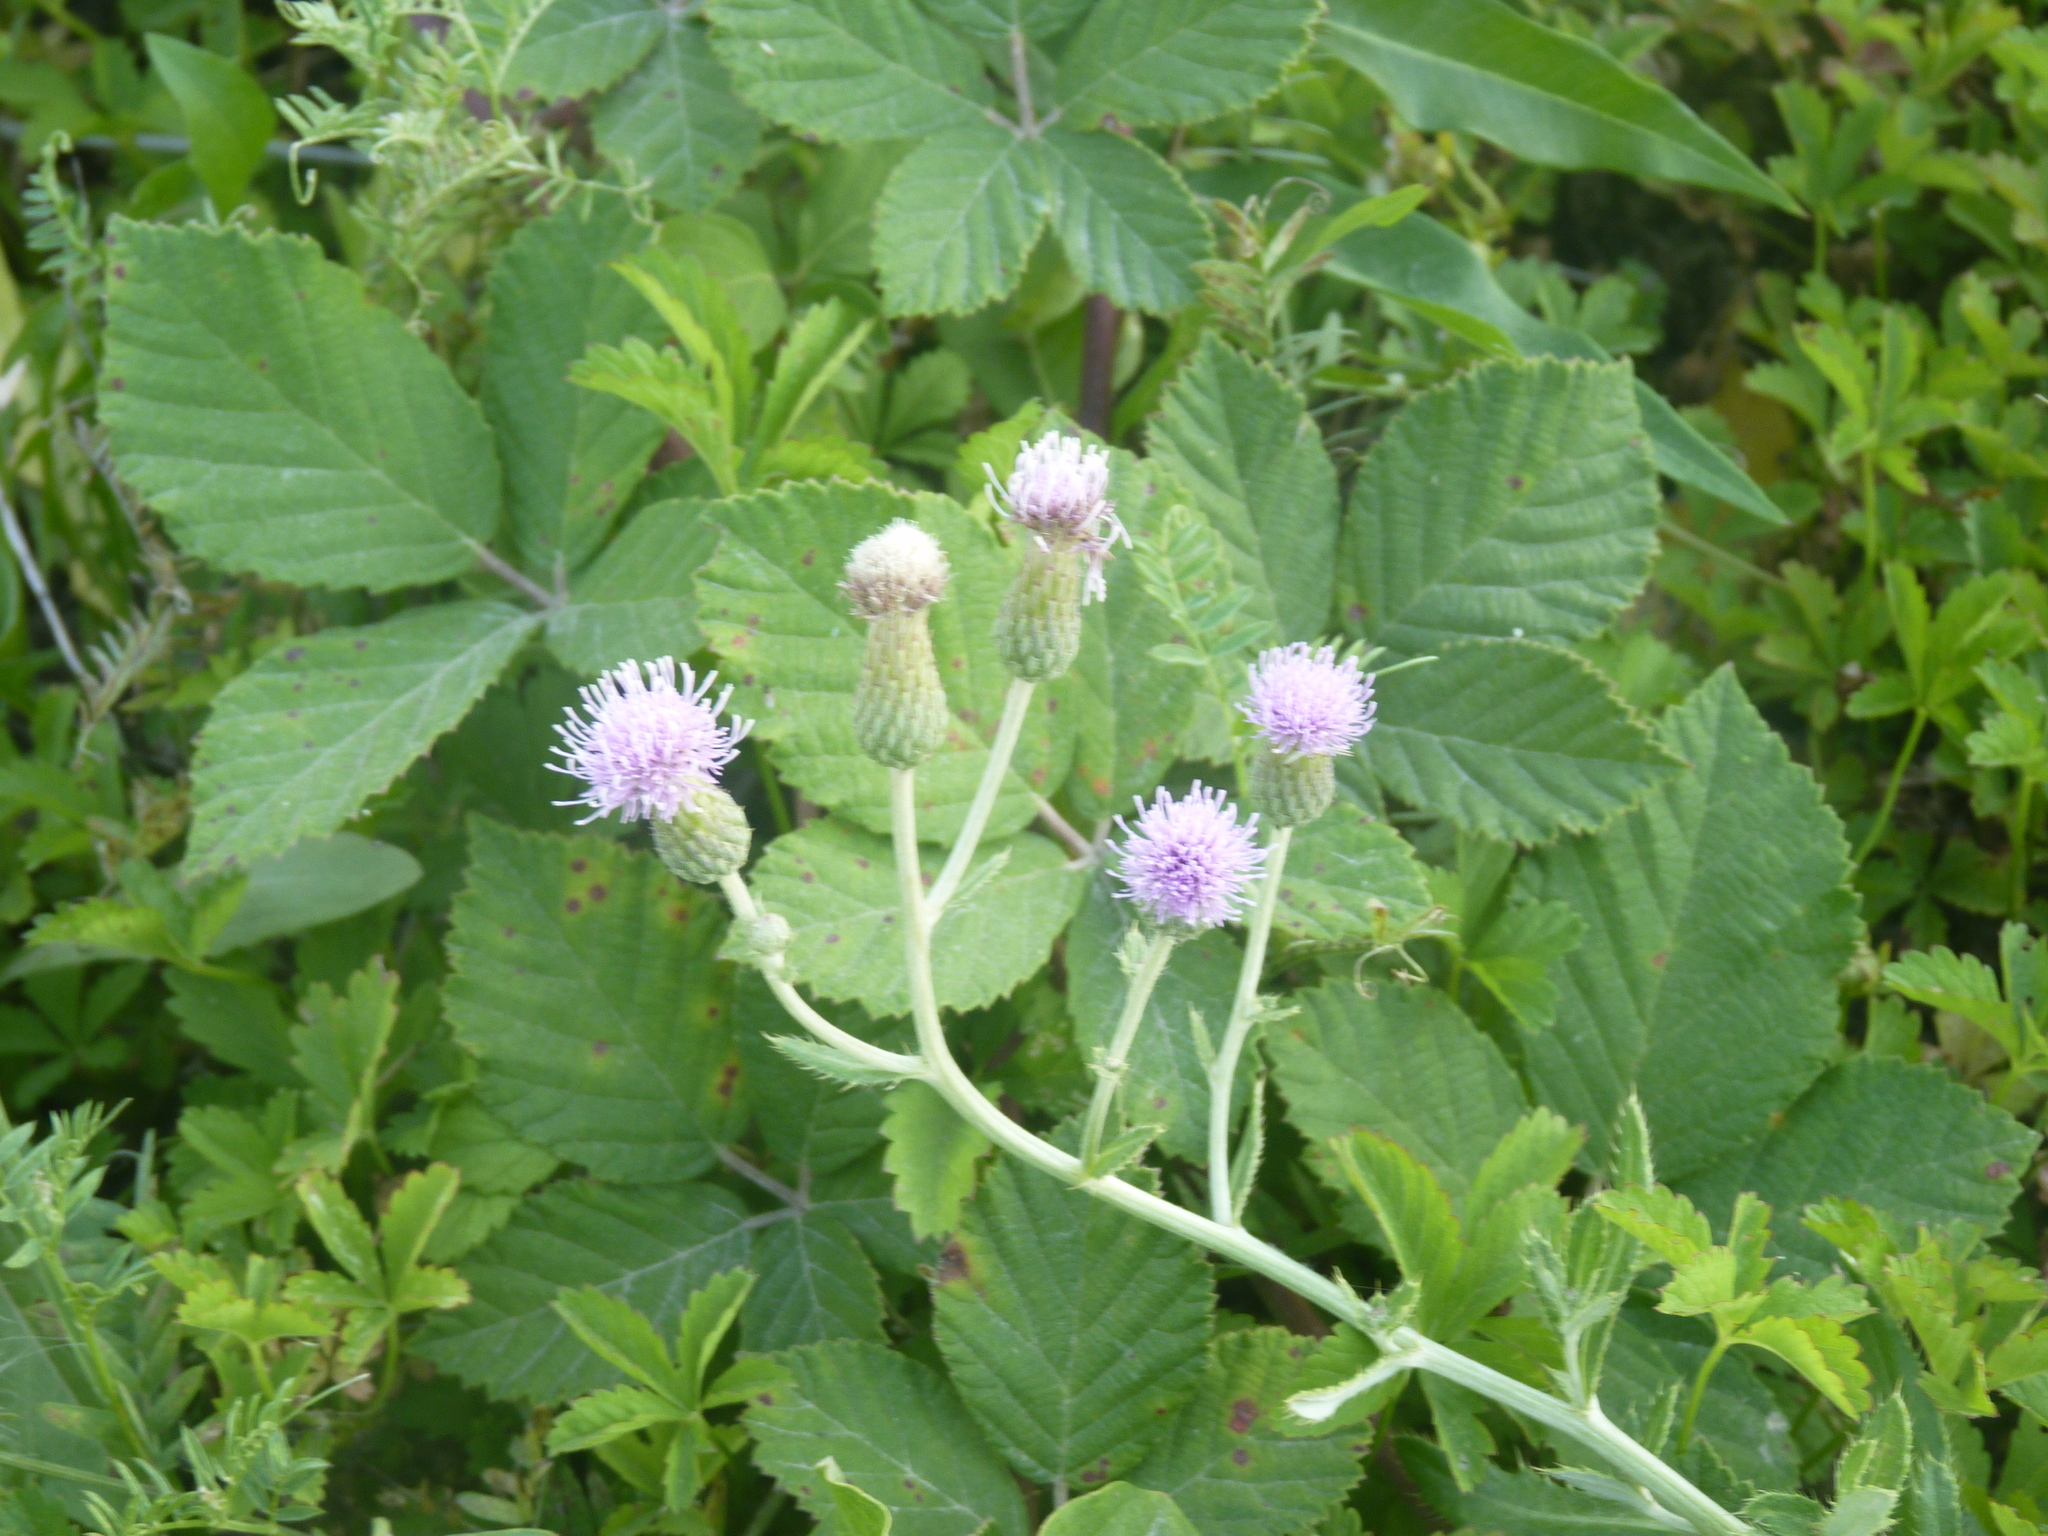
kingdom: Plantae
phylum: Tracheophyta
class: Magnoliopsida
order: Asterales
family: Asteraceae
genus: Cirsium
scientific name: Cirsium arvense
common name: Creeping thistle
